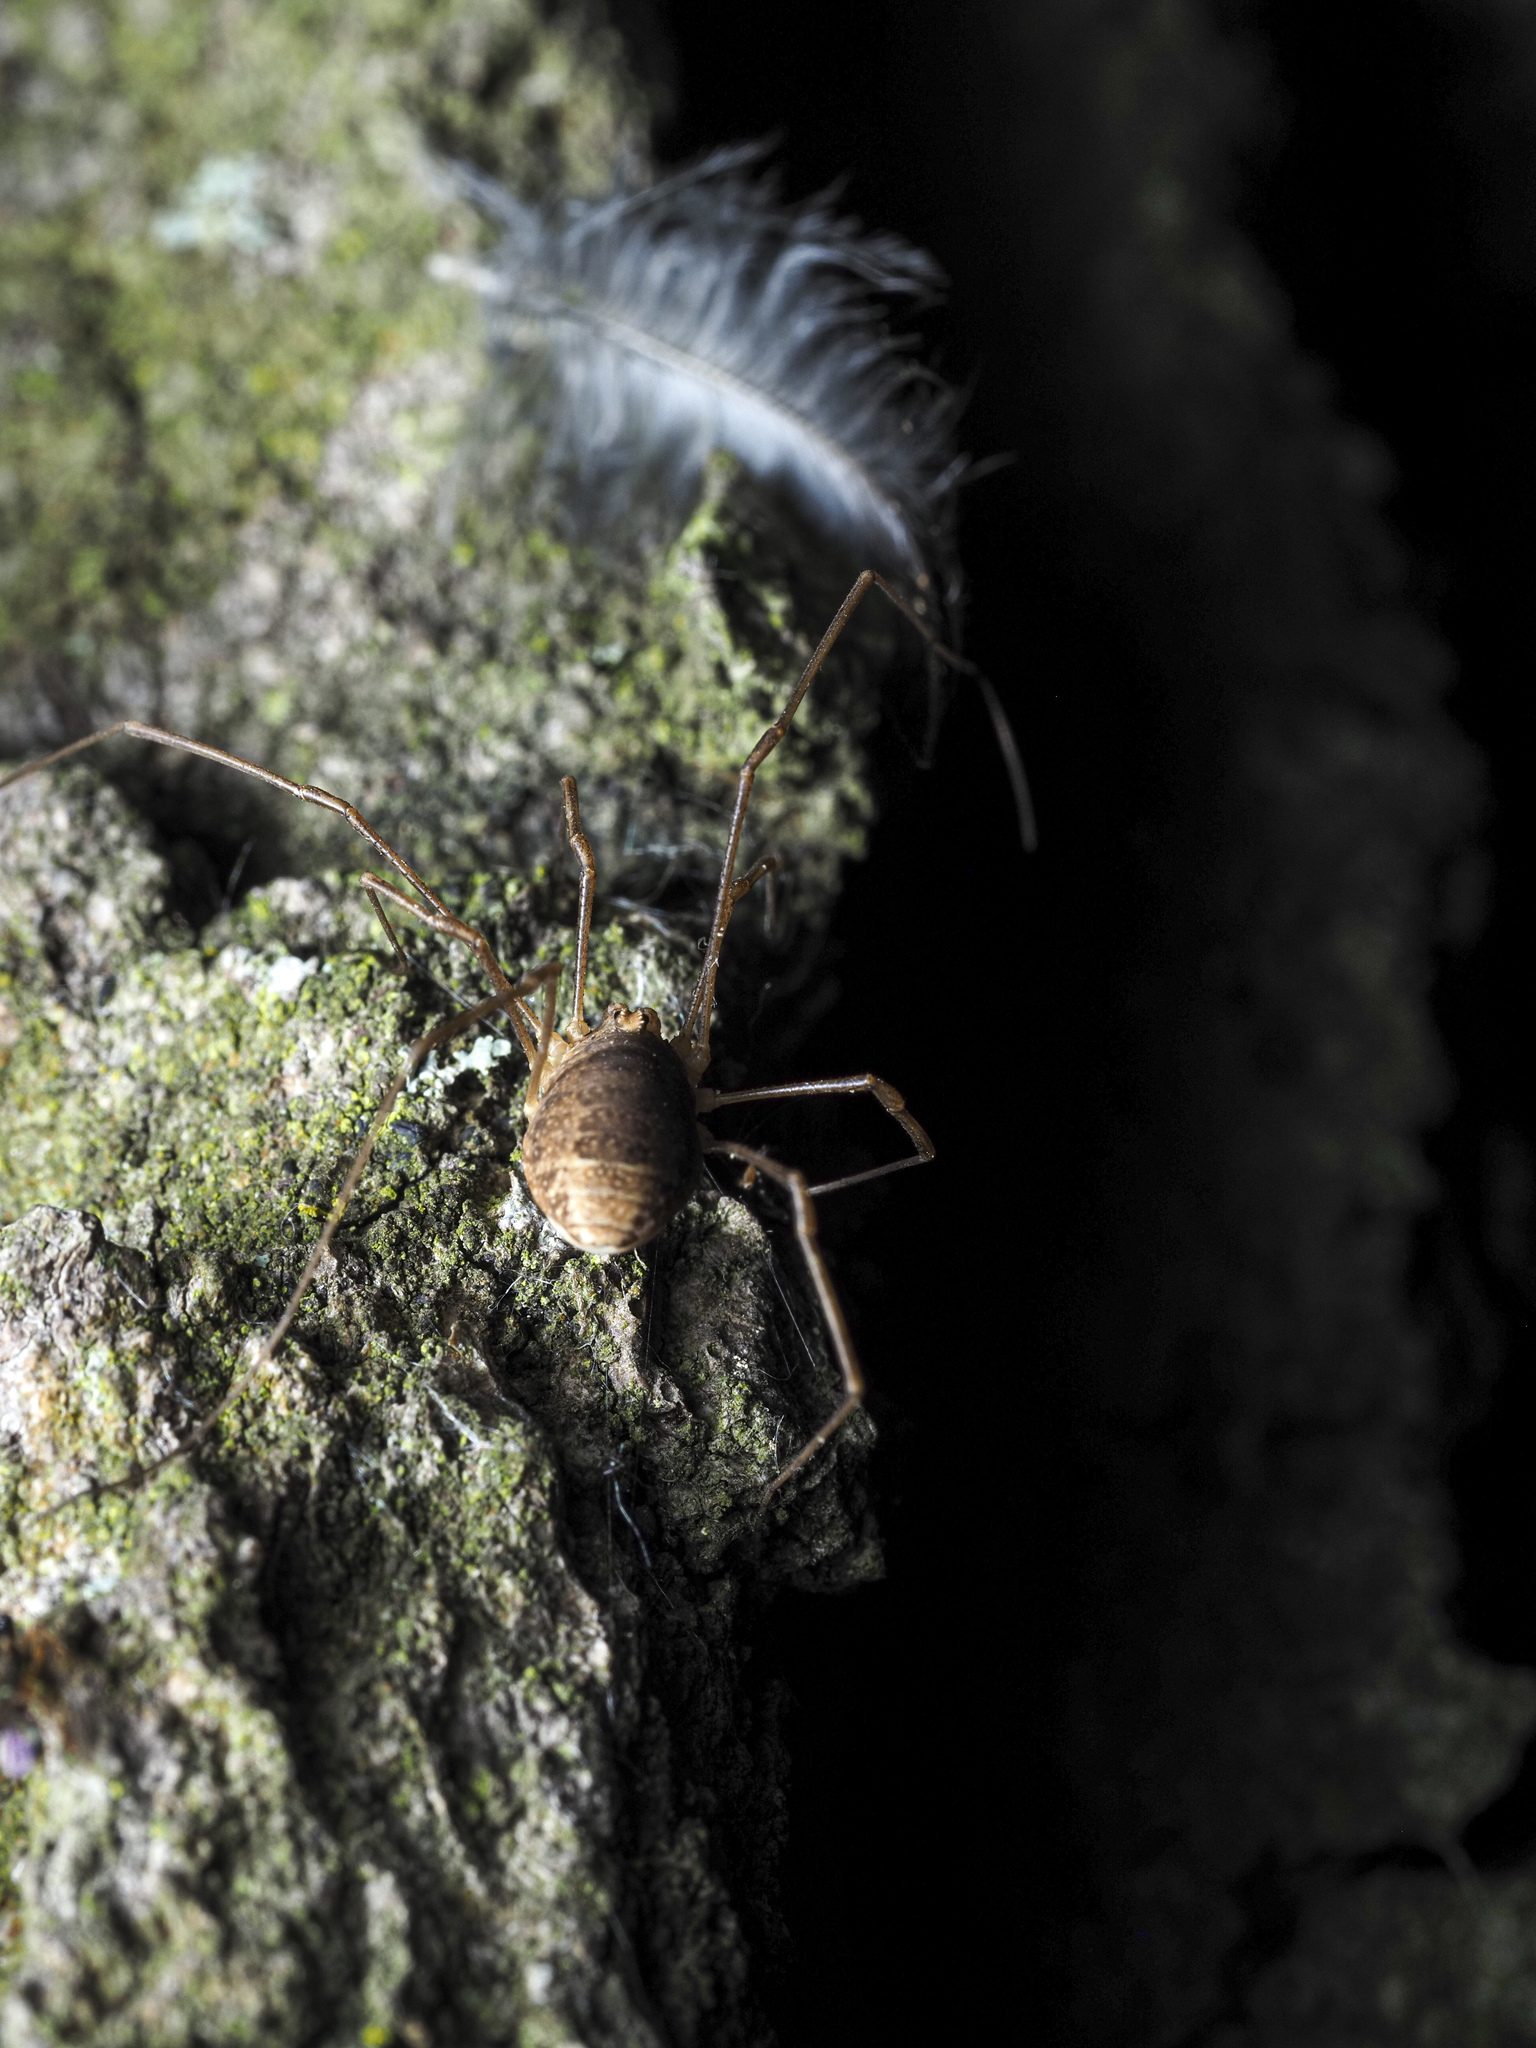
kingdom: Animalia
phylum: Arthropoda
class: Arachnida
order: Opiliones
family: Phalangiidae
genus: Rilaena
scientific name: Rilaena triangularis
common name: Spring harvestman
